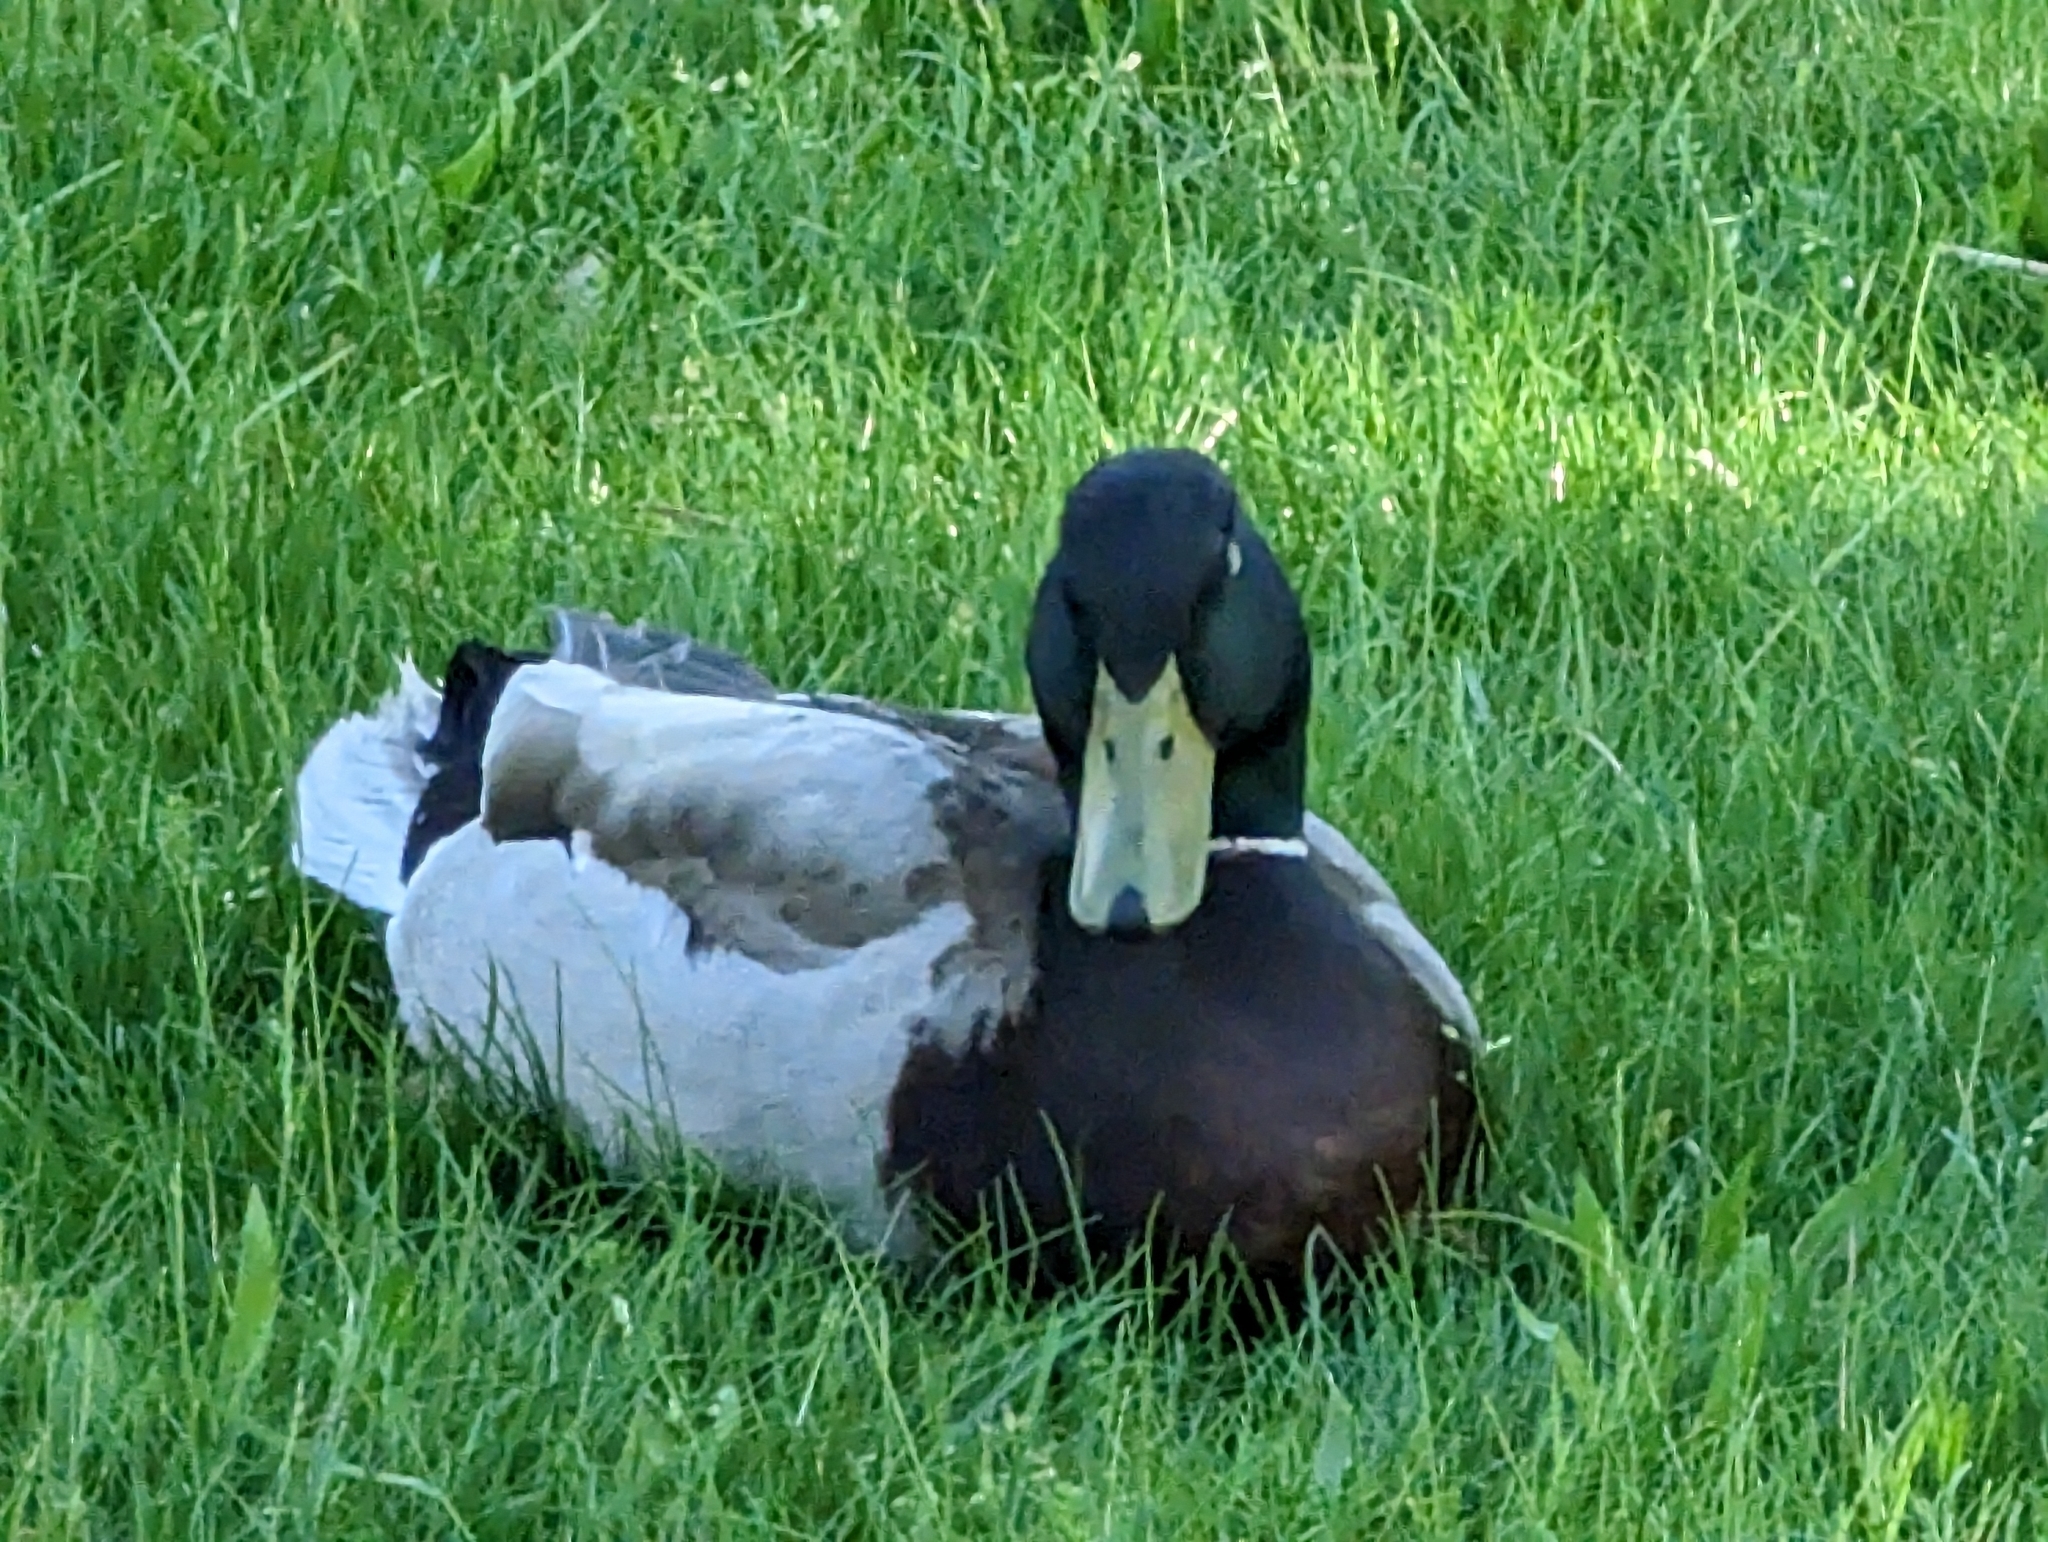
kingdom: Animalia
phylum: Chordata
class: Aves
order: Anseriformes
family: Anatidae
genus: Anas
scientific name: Anas platyrhynchos
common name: Mallard
